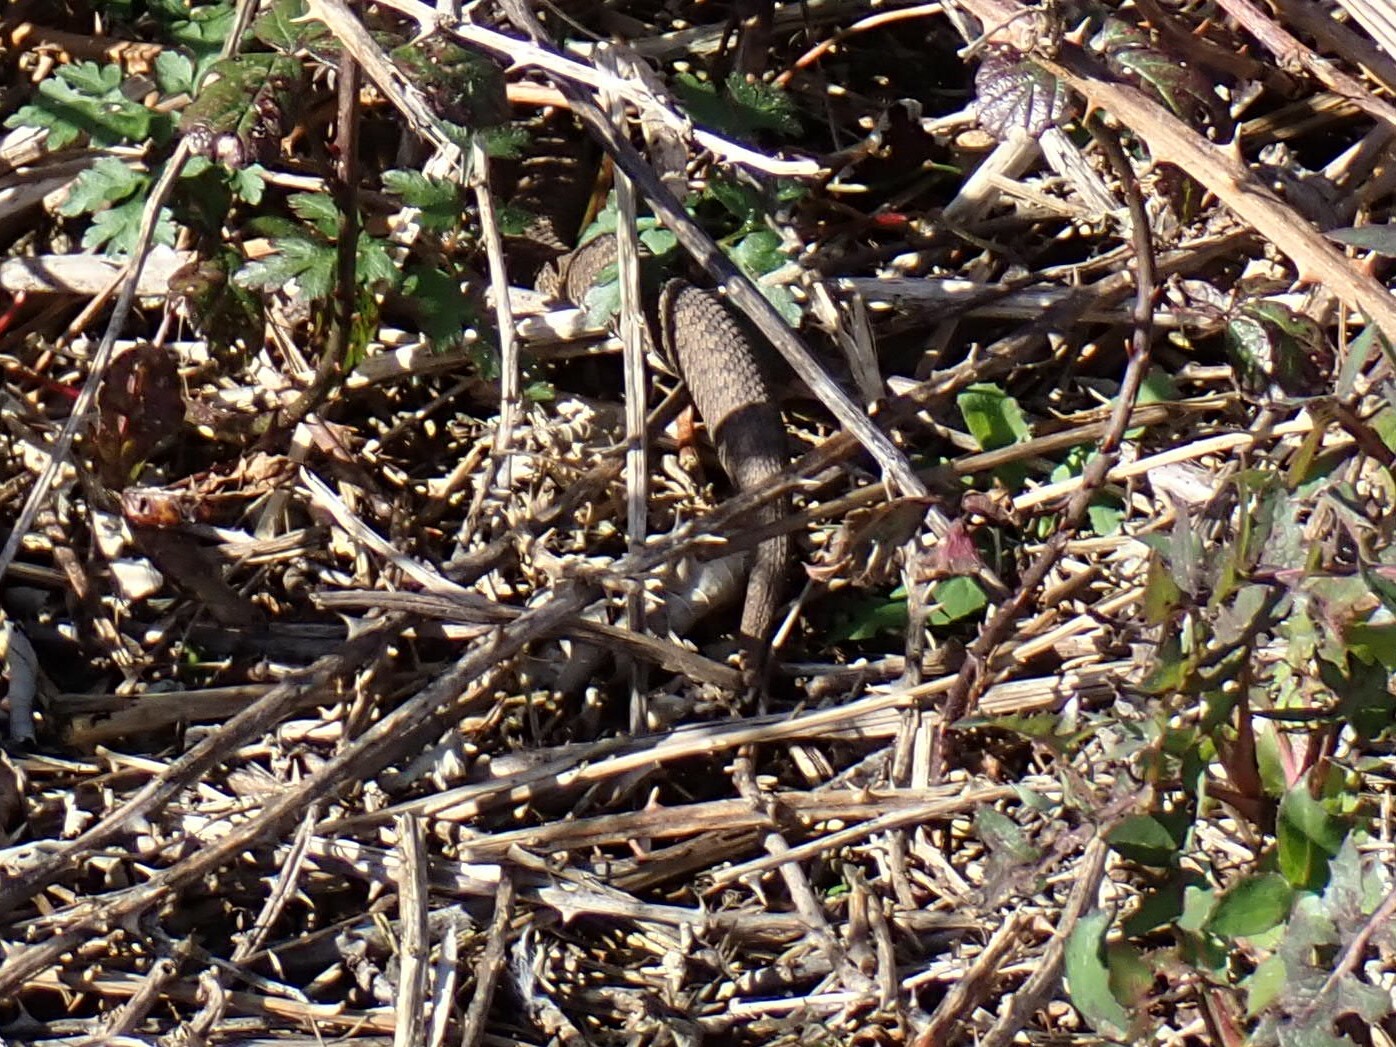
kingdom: Animalia
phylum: Chordata
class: Squamata
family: Viperidae
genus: Vipera
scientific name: Vipera berus
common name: Adder
